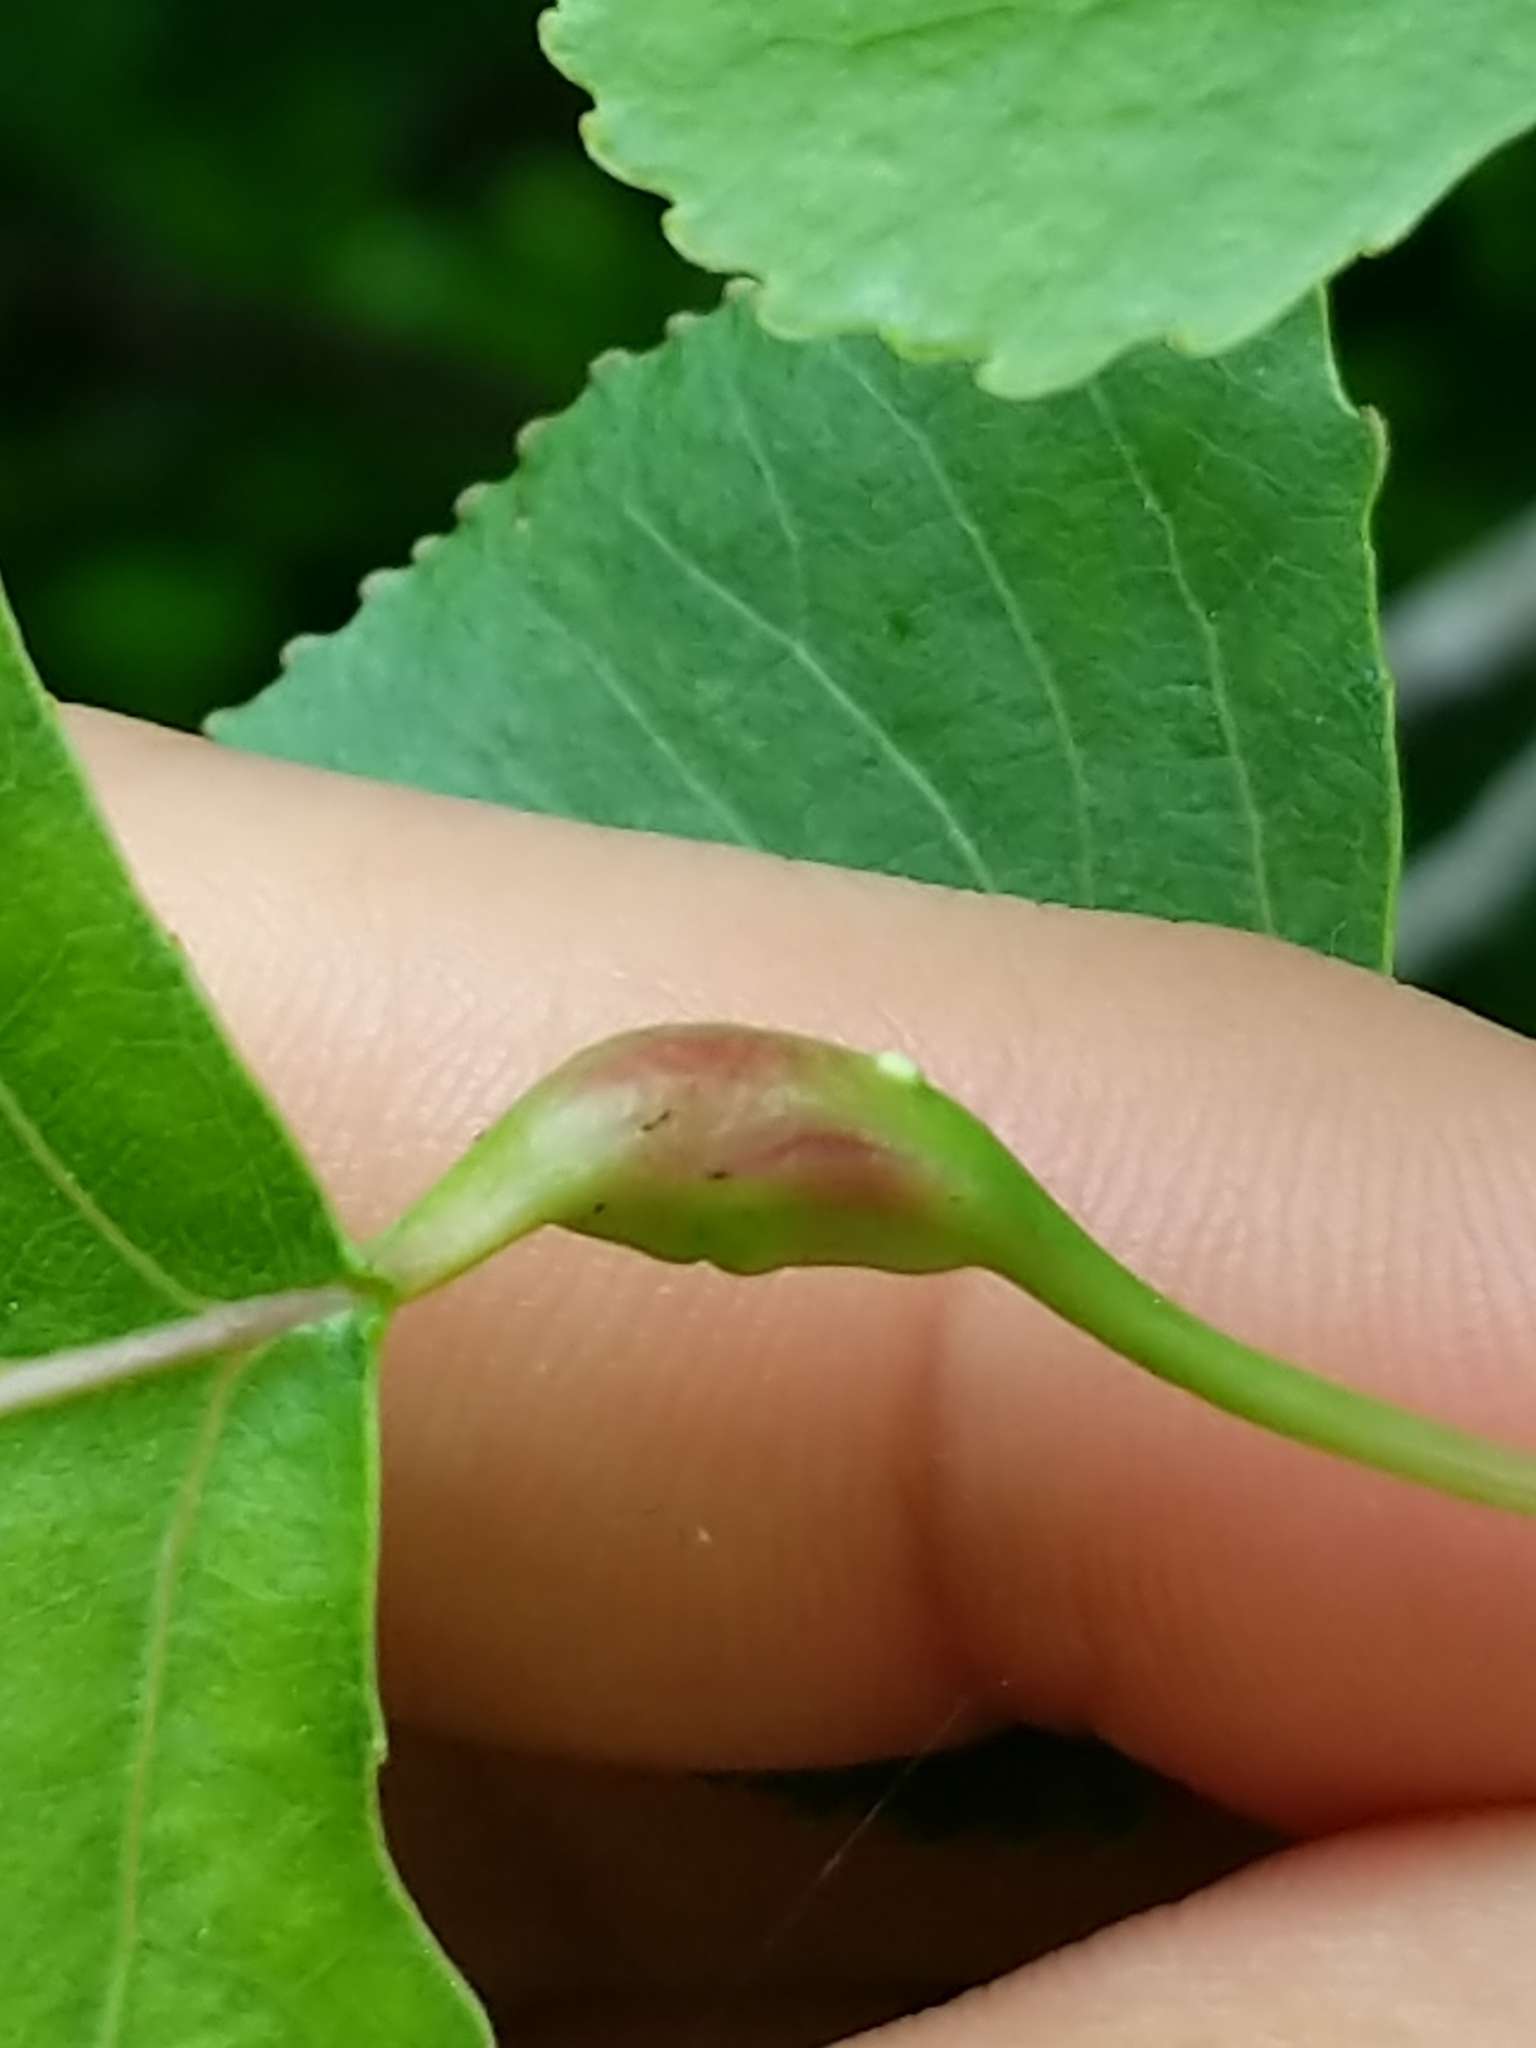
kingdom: Animalia
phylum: Arthropoda
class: Insecta
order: Hemiptera
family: Aphididae
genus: Pemphigus
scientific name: Pemphigus populitransversus
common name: Poplar petiolegall aphid
